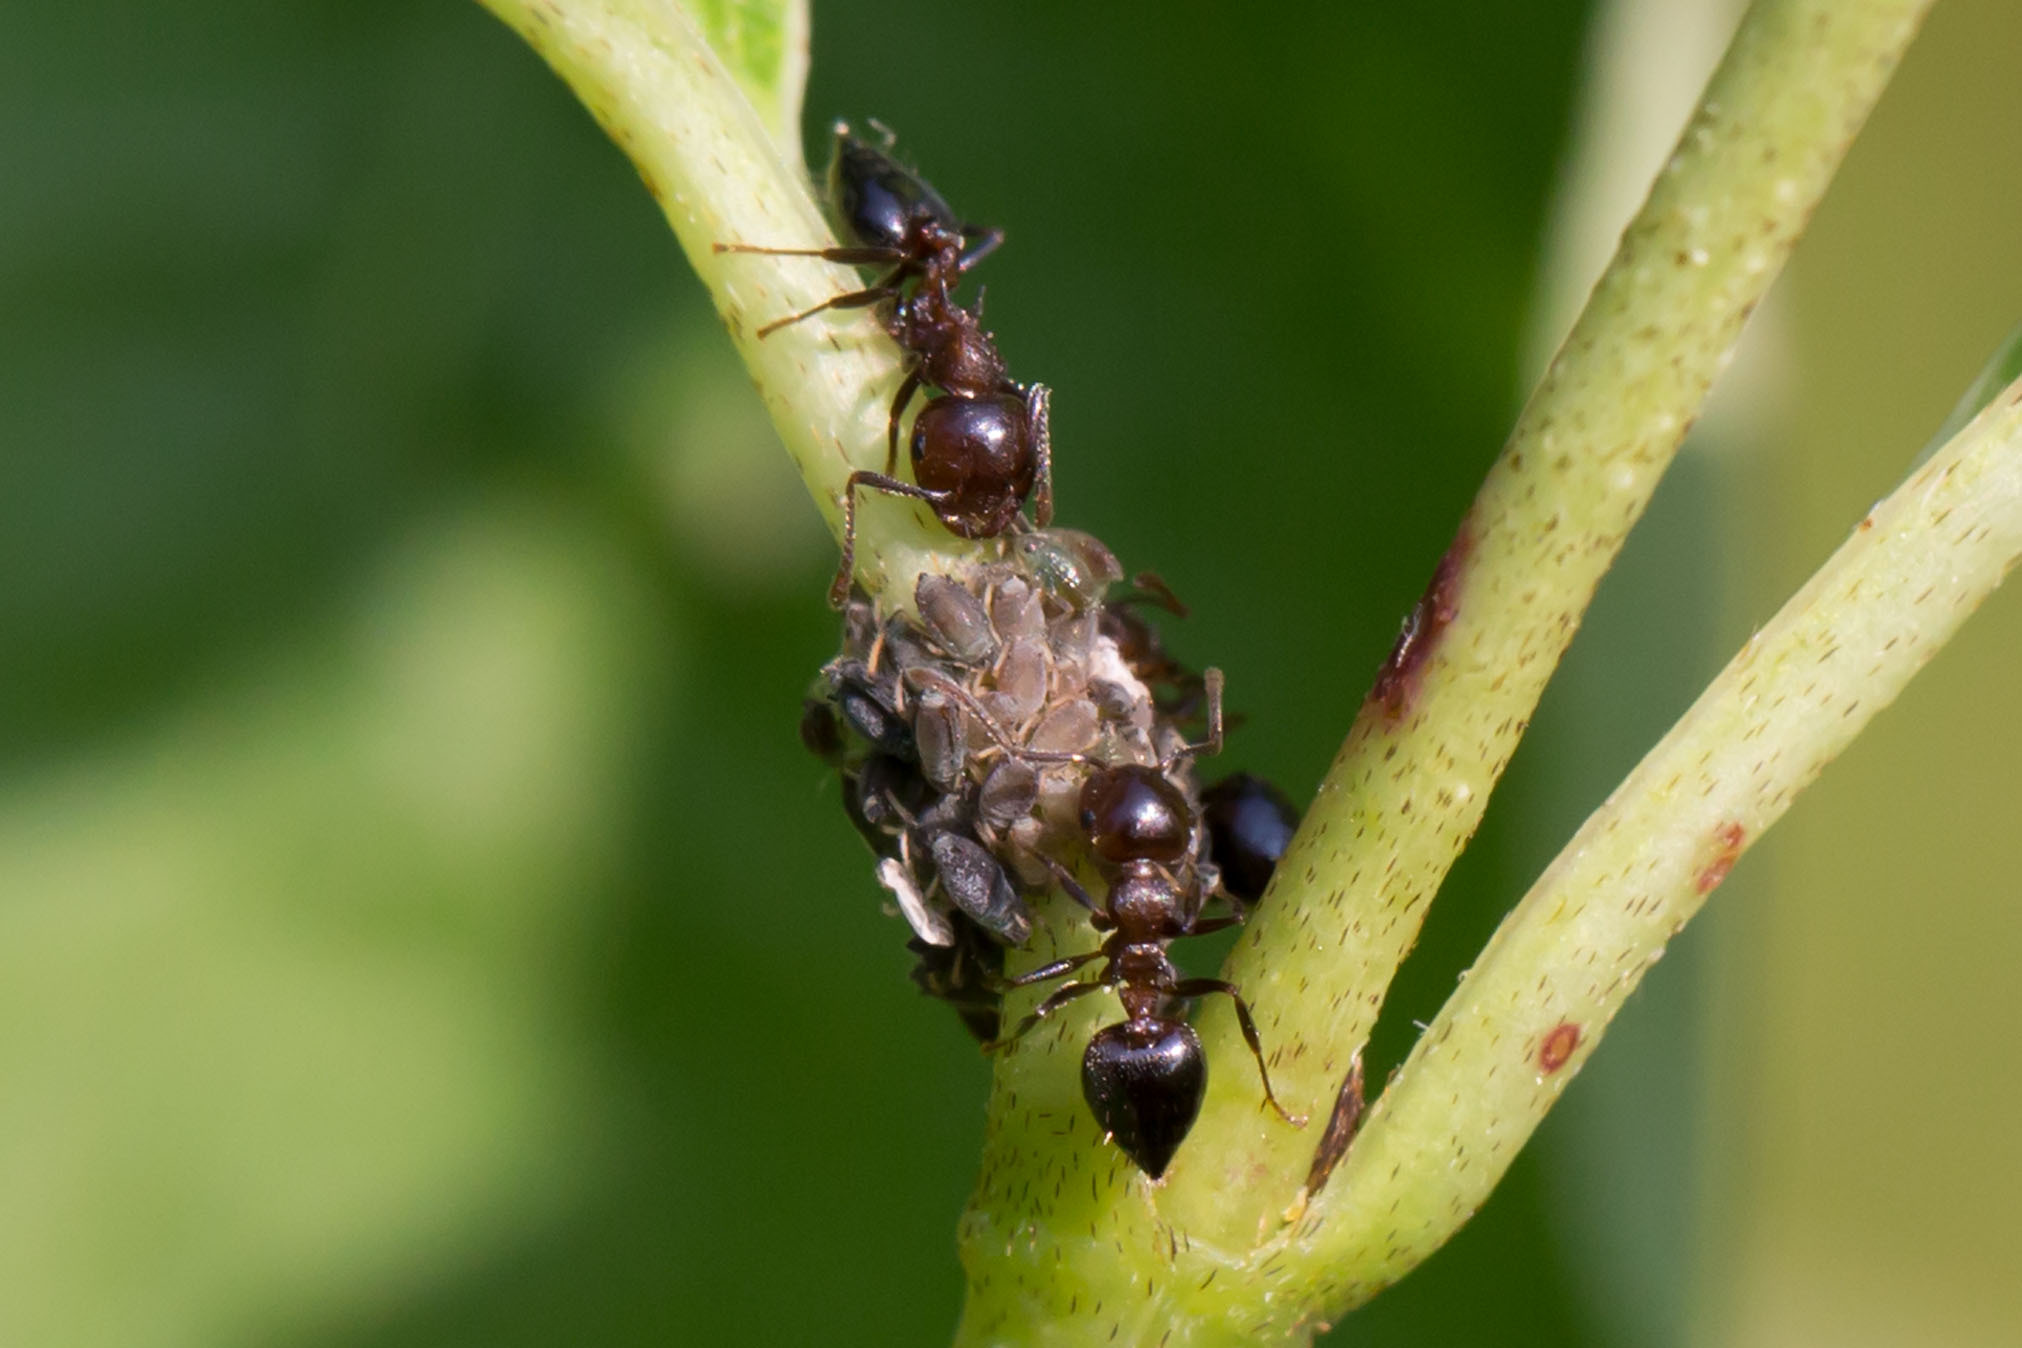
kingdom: Animalia
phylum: Arthropoda
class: Insecta
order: Hymenoptera
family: Formicidae
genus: Crematogaster
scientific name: Crematogaster cerasi
